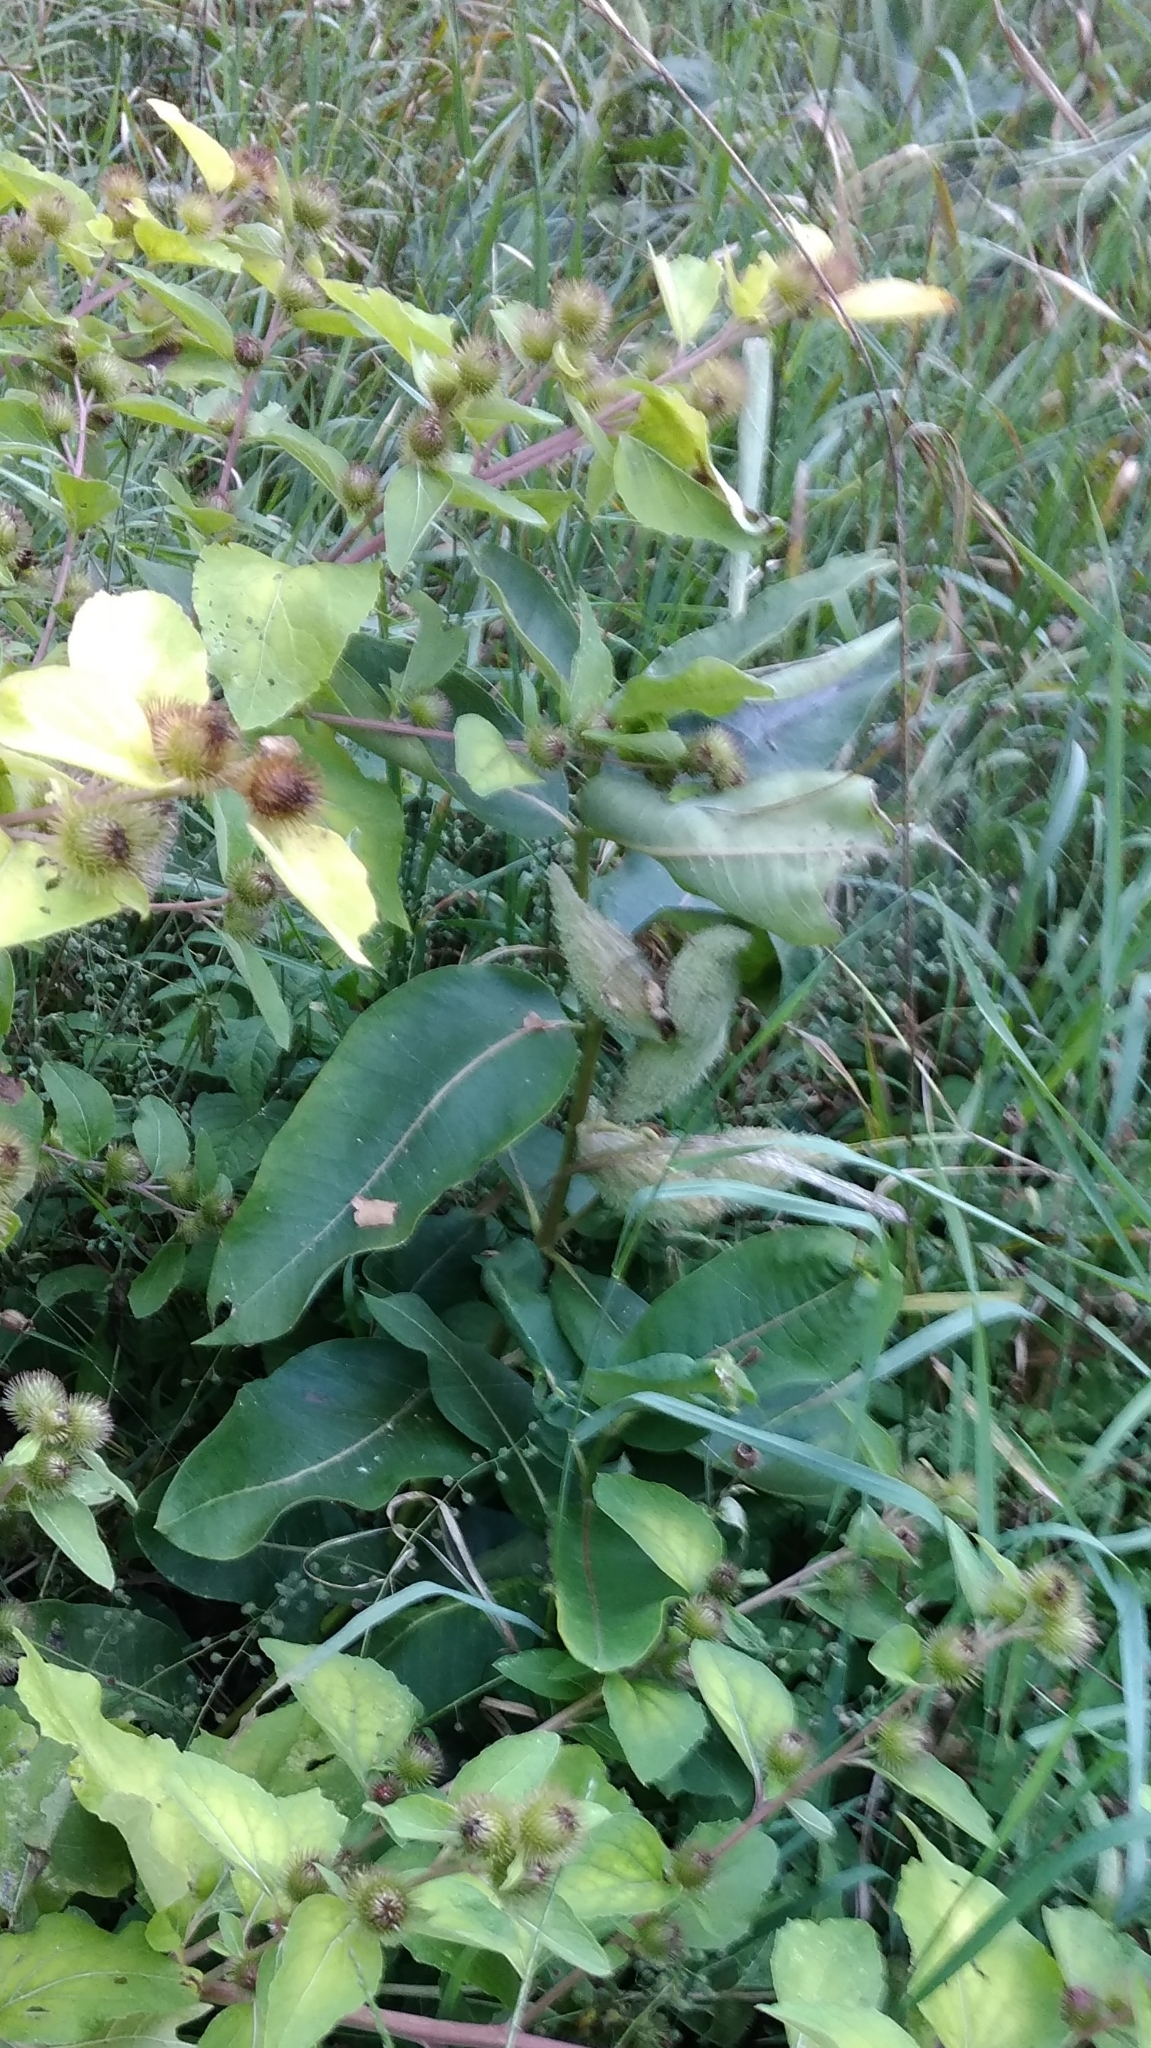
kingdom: Plantae
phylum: Tracheophyta
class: Magnoliopsida
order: Gentianales
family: Apocynaceae
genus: Asclepias
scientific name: Asclepias syriaca
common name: Common milkweed
